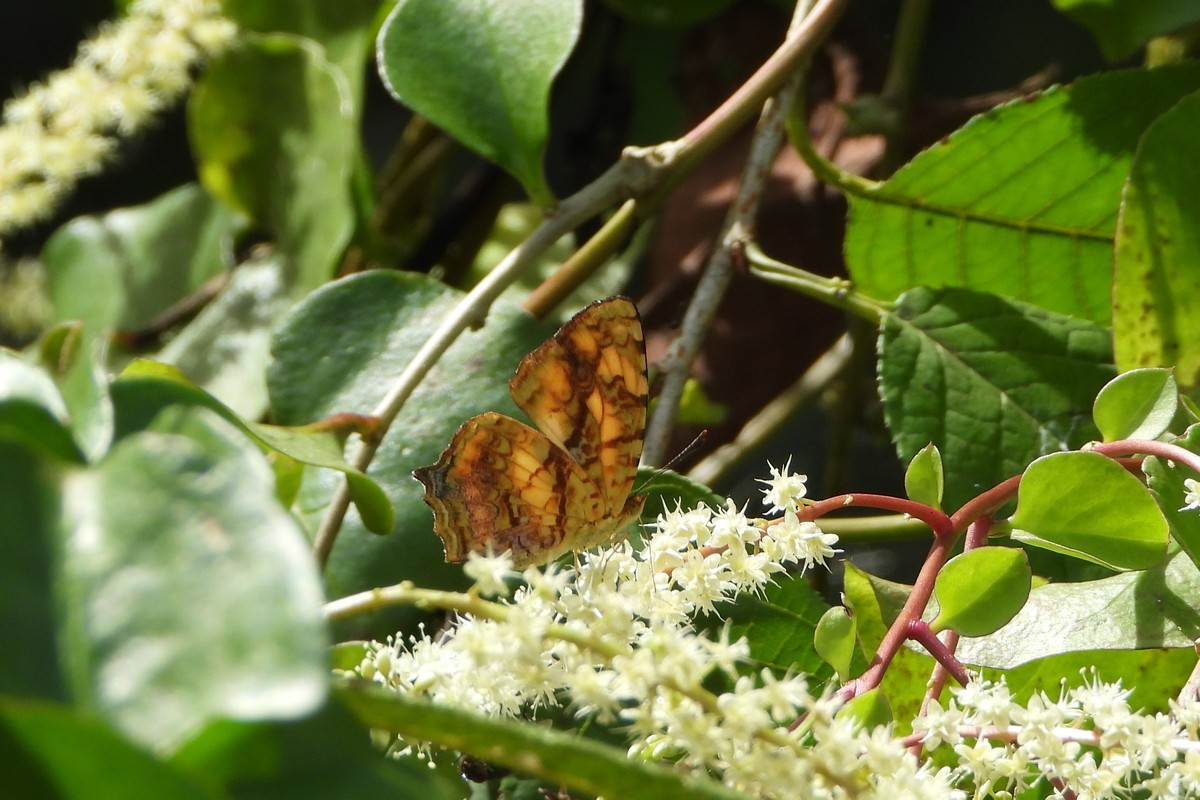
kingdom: Animalia
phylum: Arthropoda
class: Insecta
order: Lepidoptera
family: Nymphalidae
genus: Symbrenthia
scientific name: Symbrenthia hypselis
